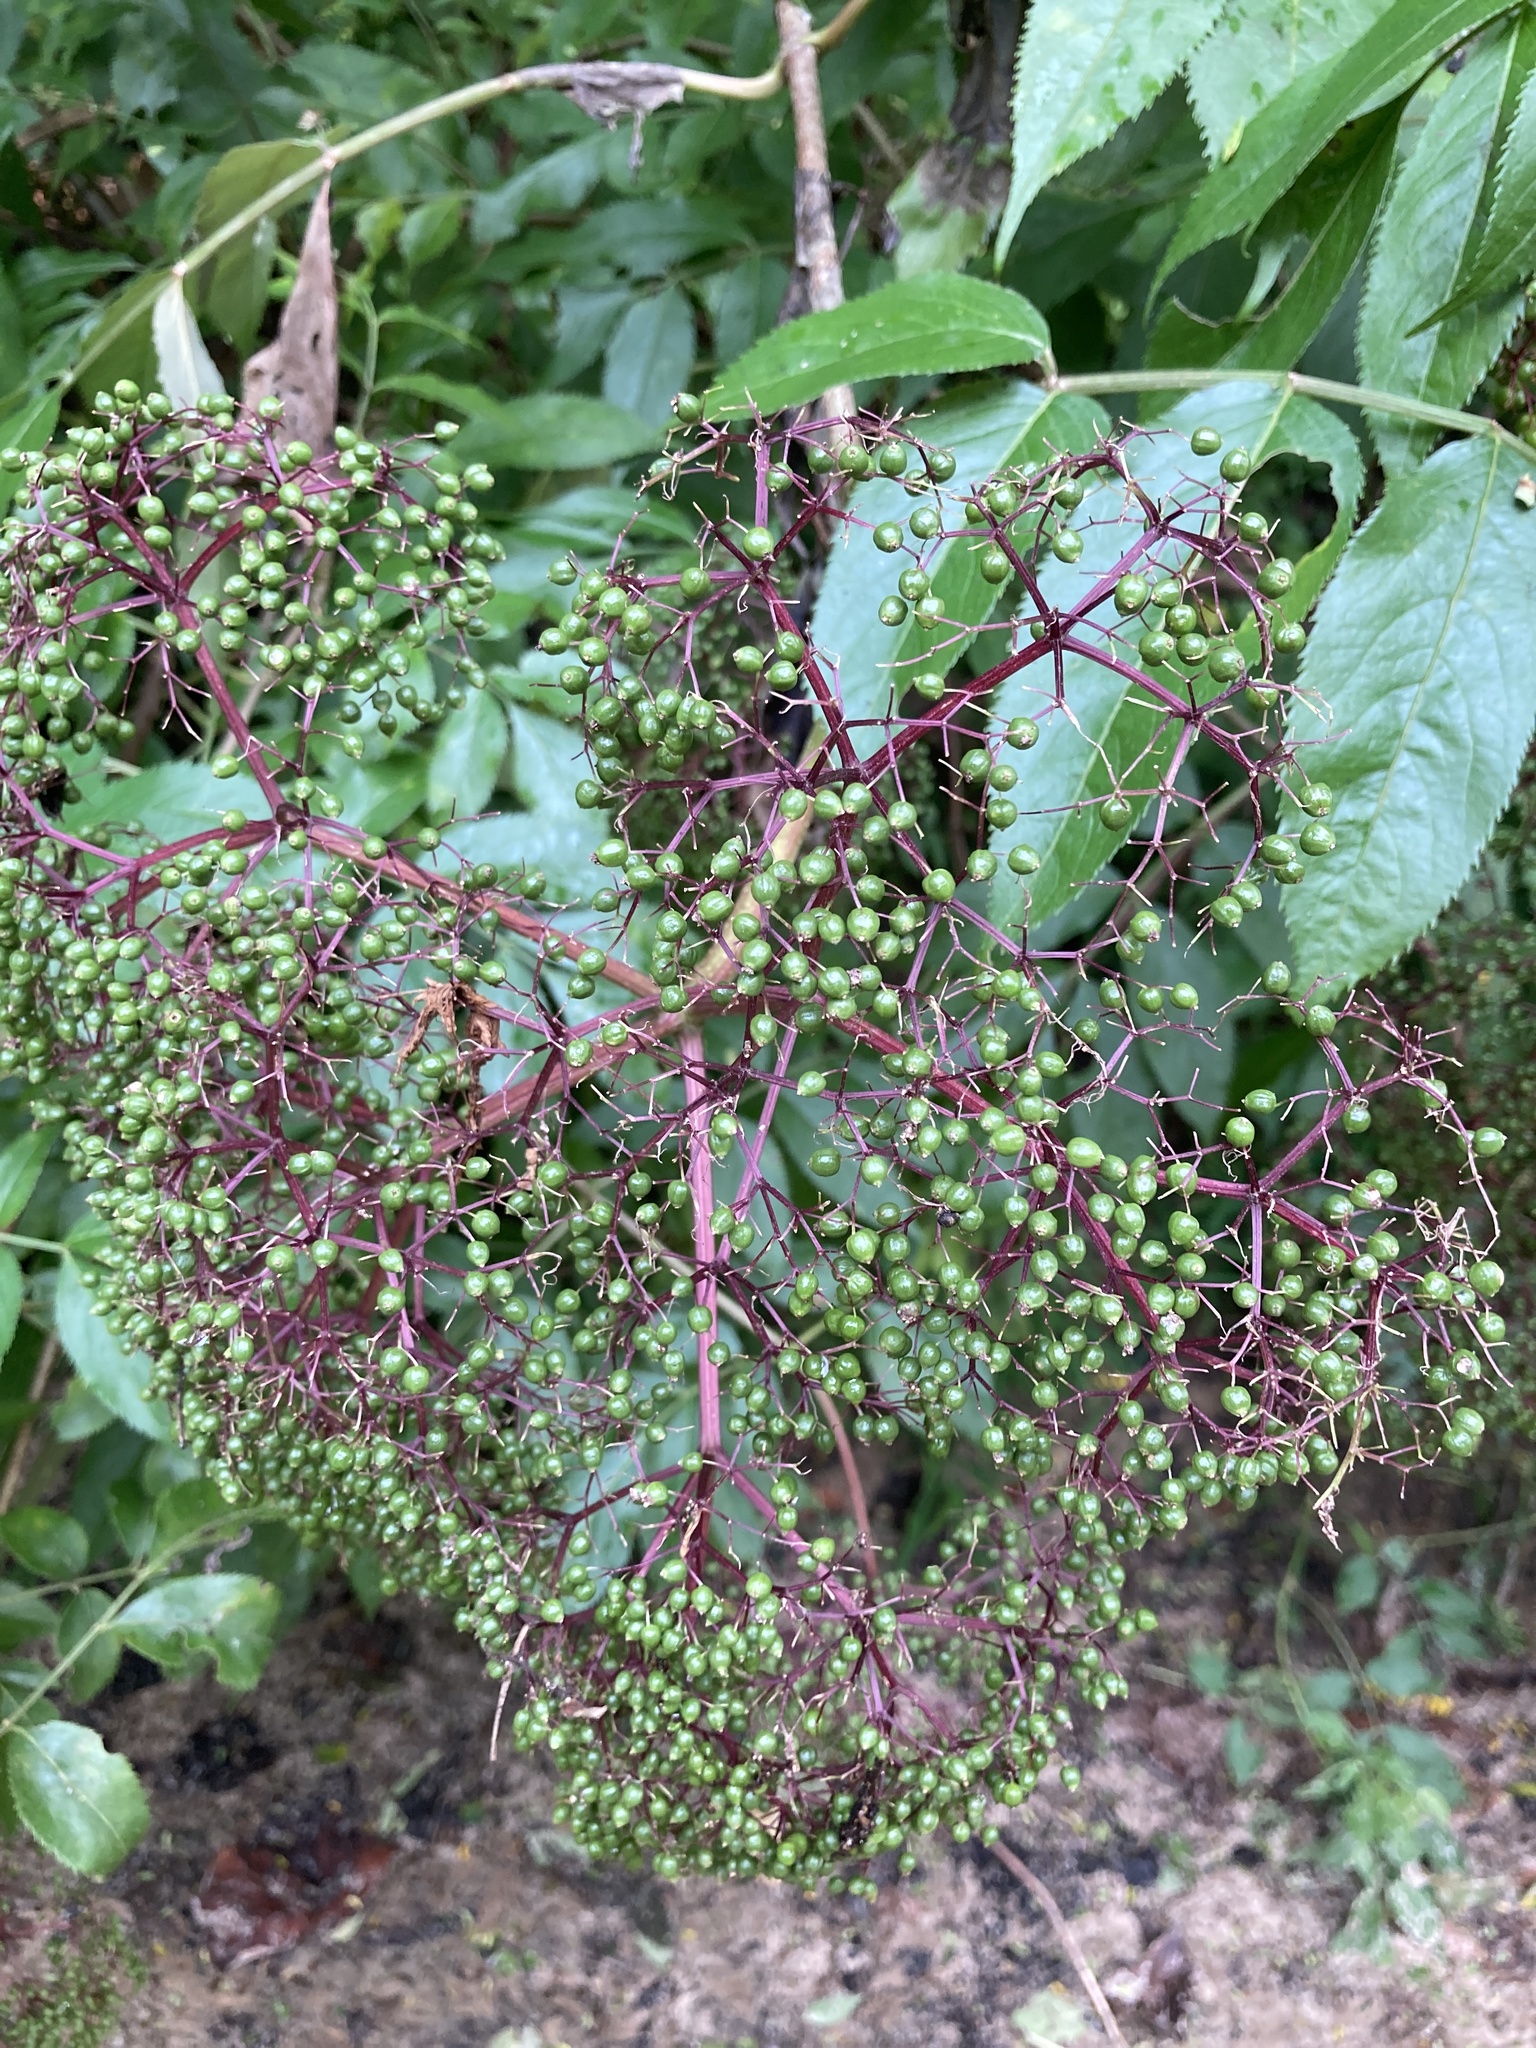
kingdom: Plantae
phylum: Tracheophyta
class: Magnoliopsida
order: Dipsacales
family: Viburnaceae
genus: Sambucus
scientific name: Sambucus canadensis
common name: American elder
